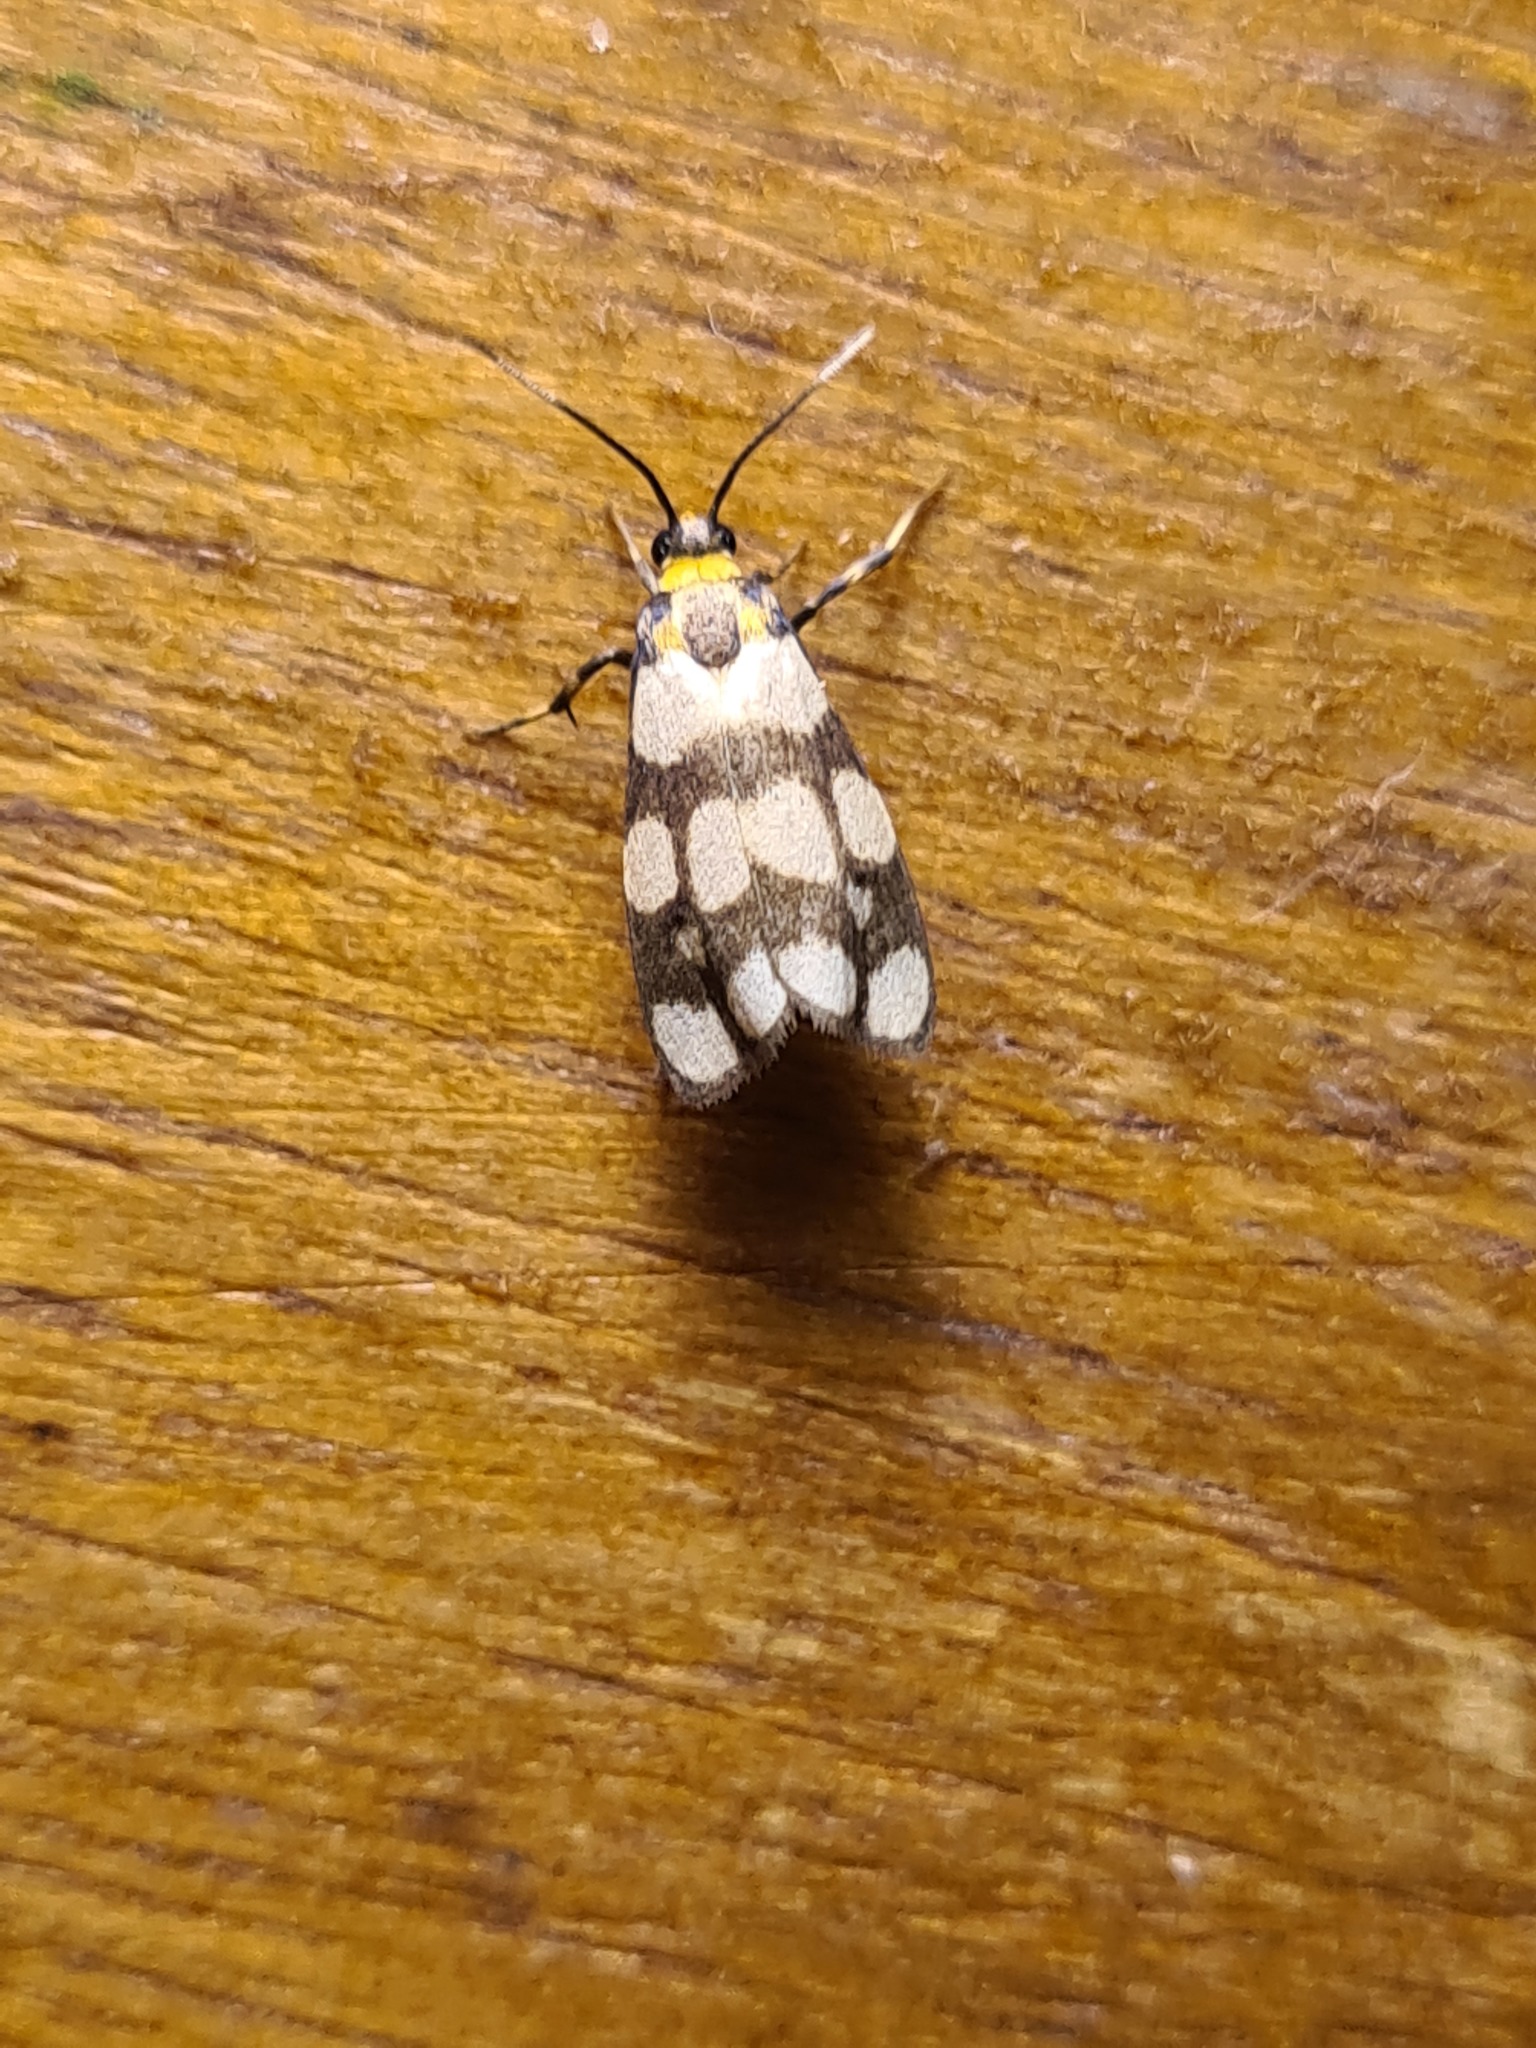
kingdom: Animalia
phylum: Arthropoda
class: Insecta
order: Lepidoptera
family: Erebidae
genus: Cisthene
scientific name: Cisthene tessellata
